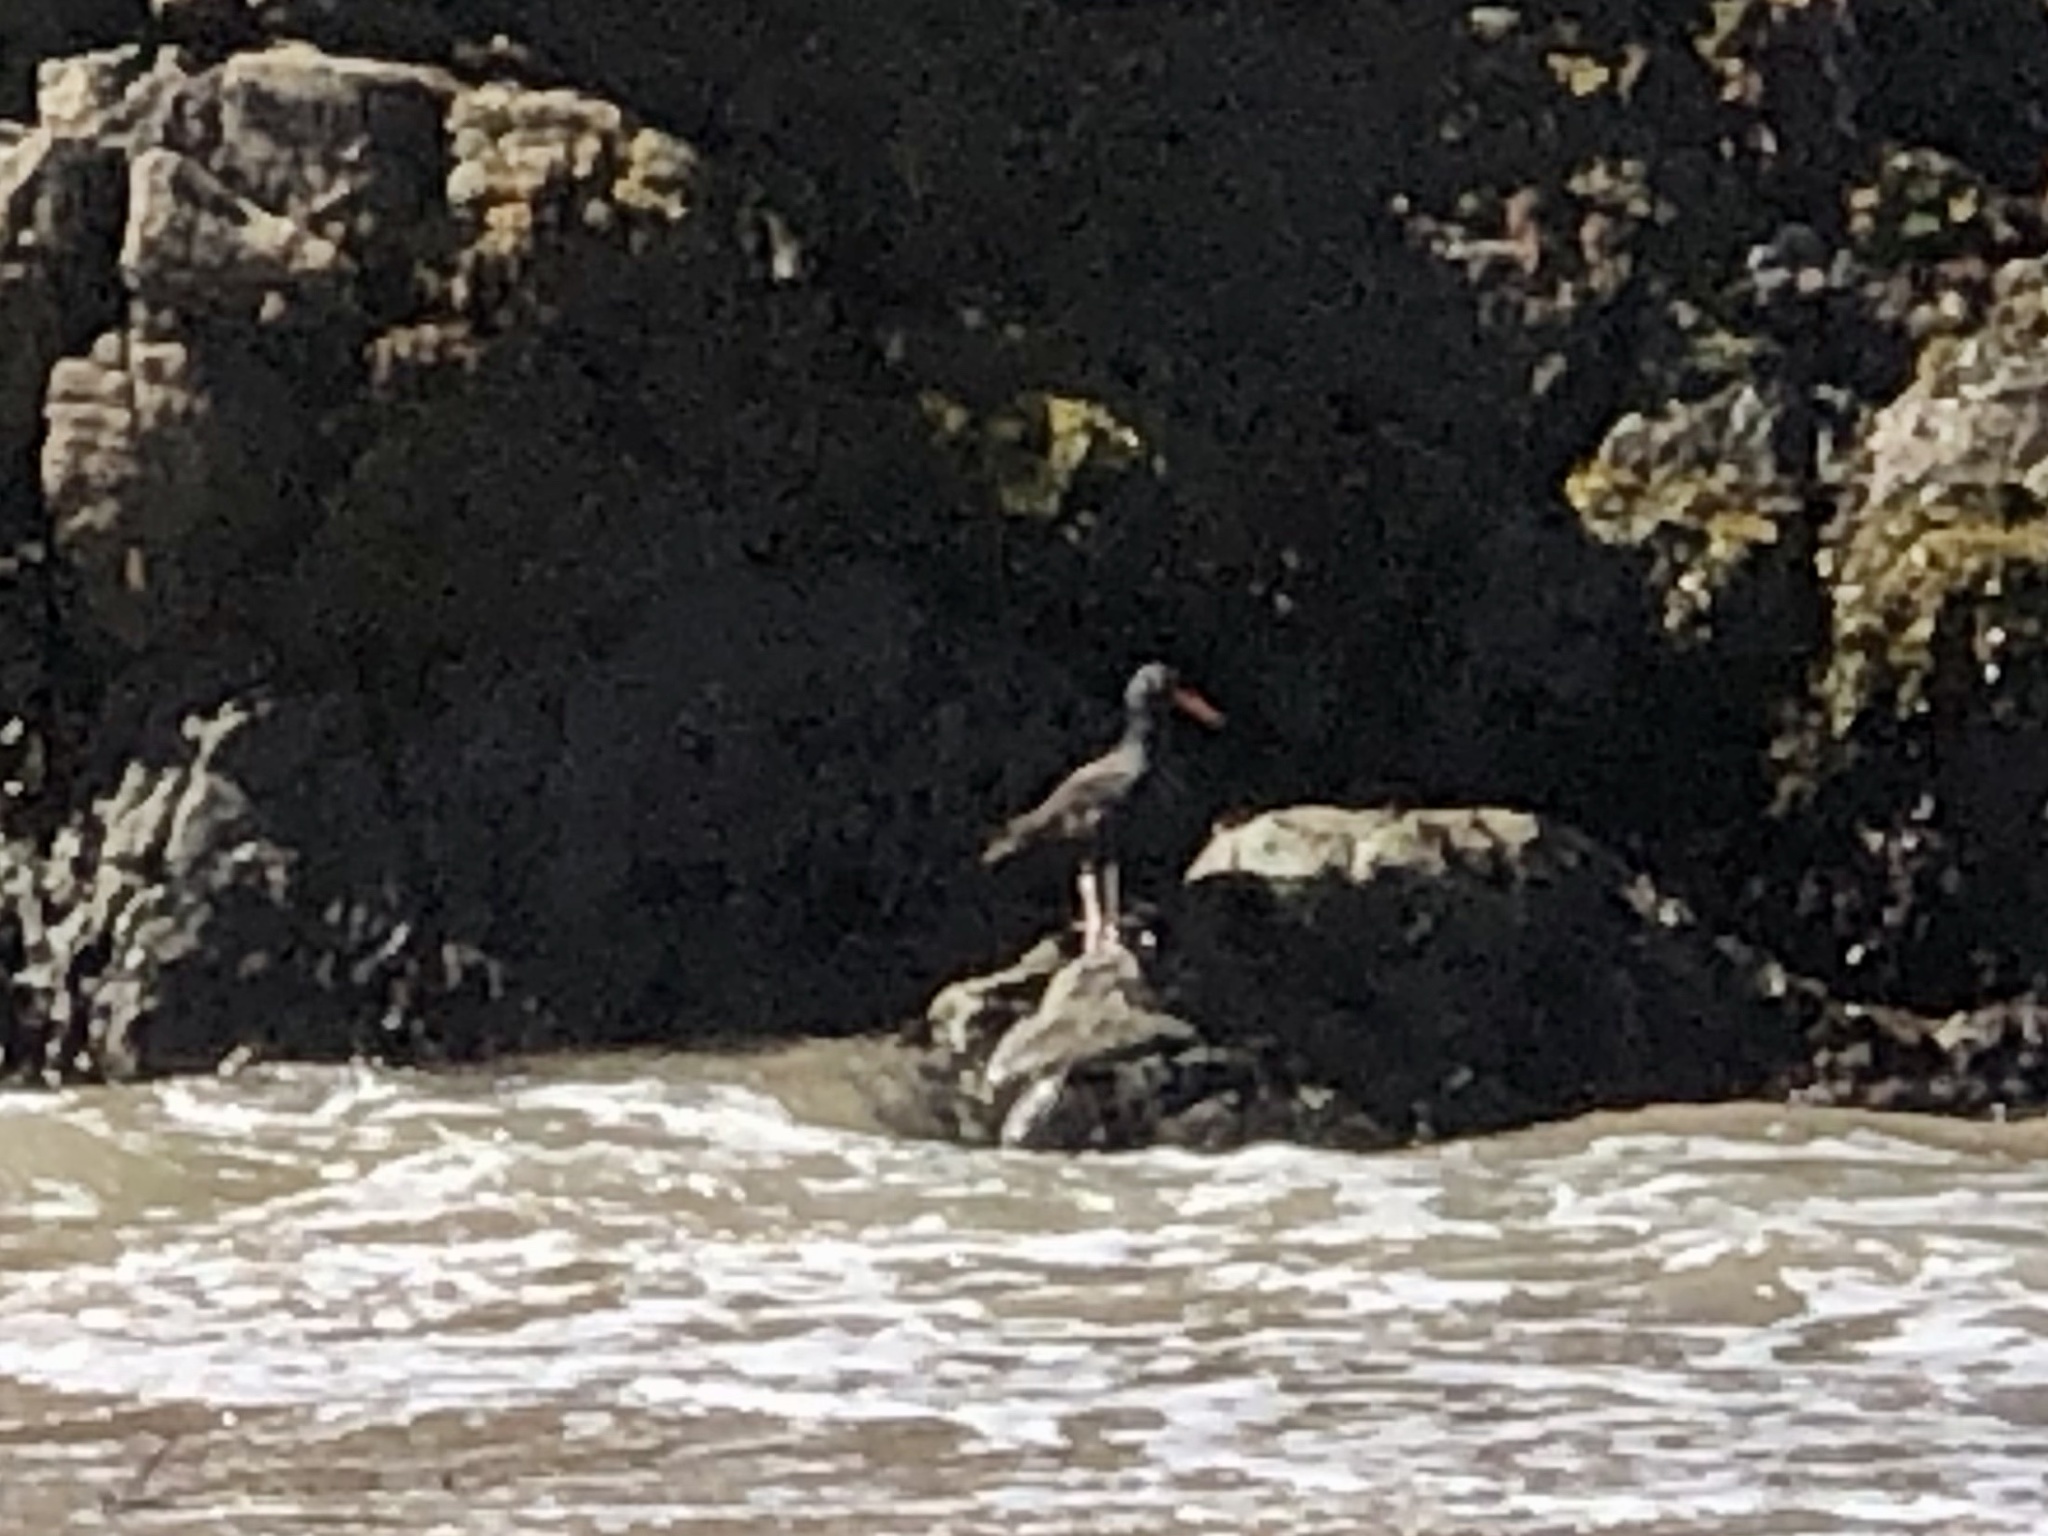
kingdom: Animalia
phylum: Chordata
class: Aves
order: Charadriiformes
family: Haematopodidae
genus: Haematopus
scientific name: Haematopus bachmani
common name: Black oystercatcher
